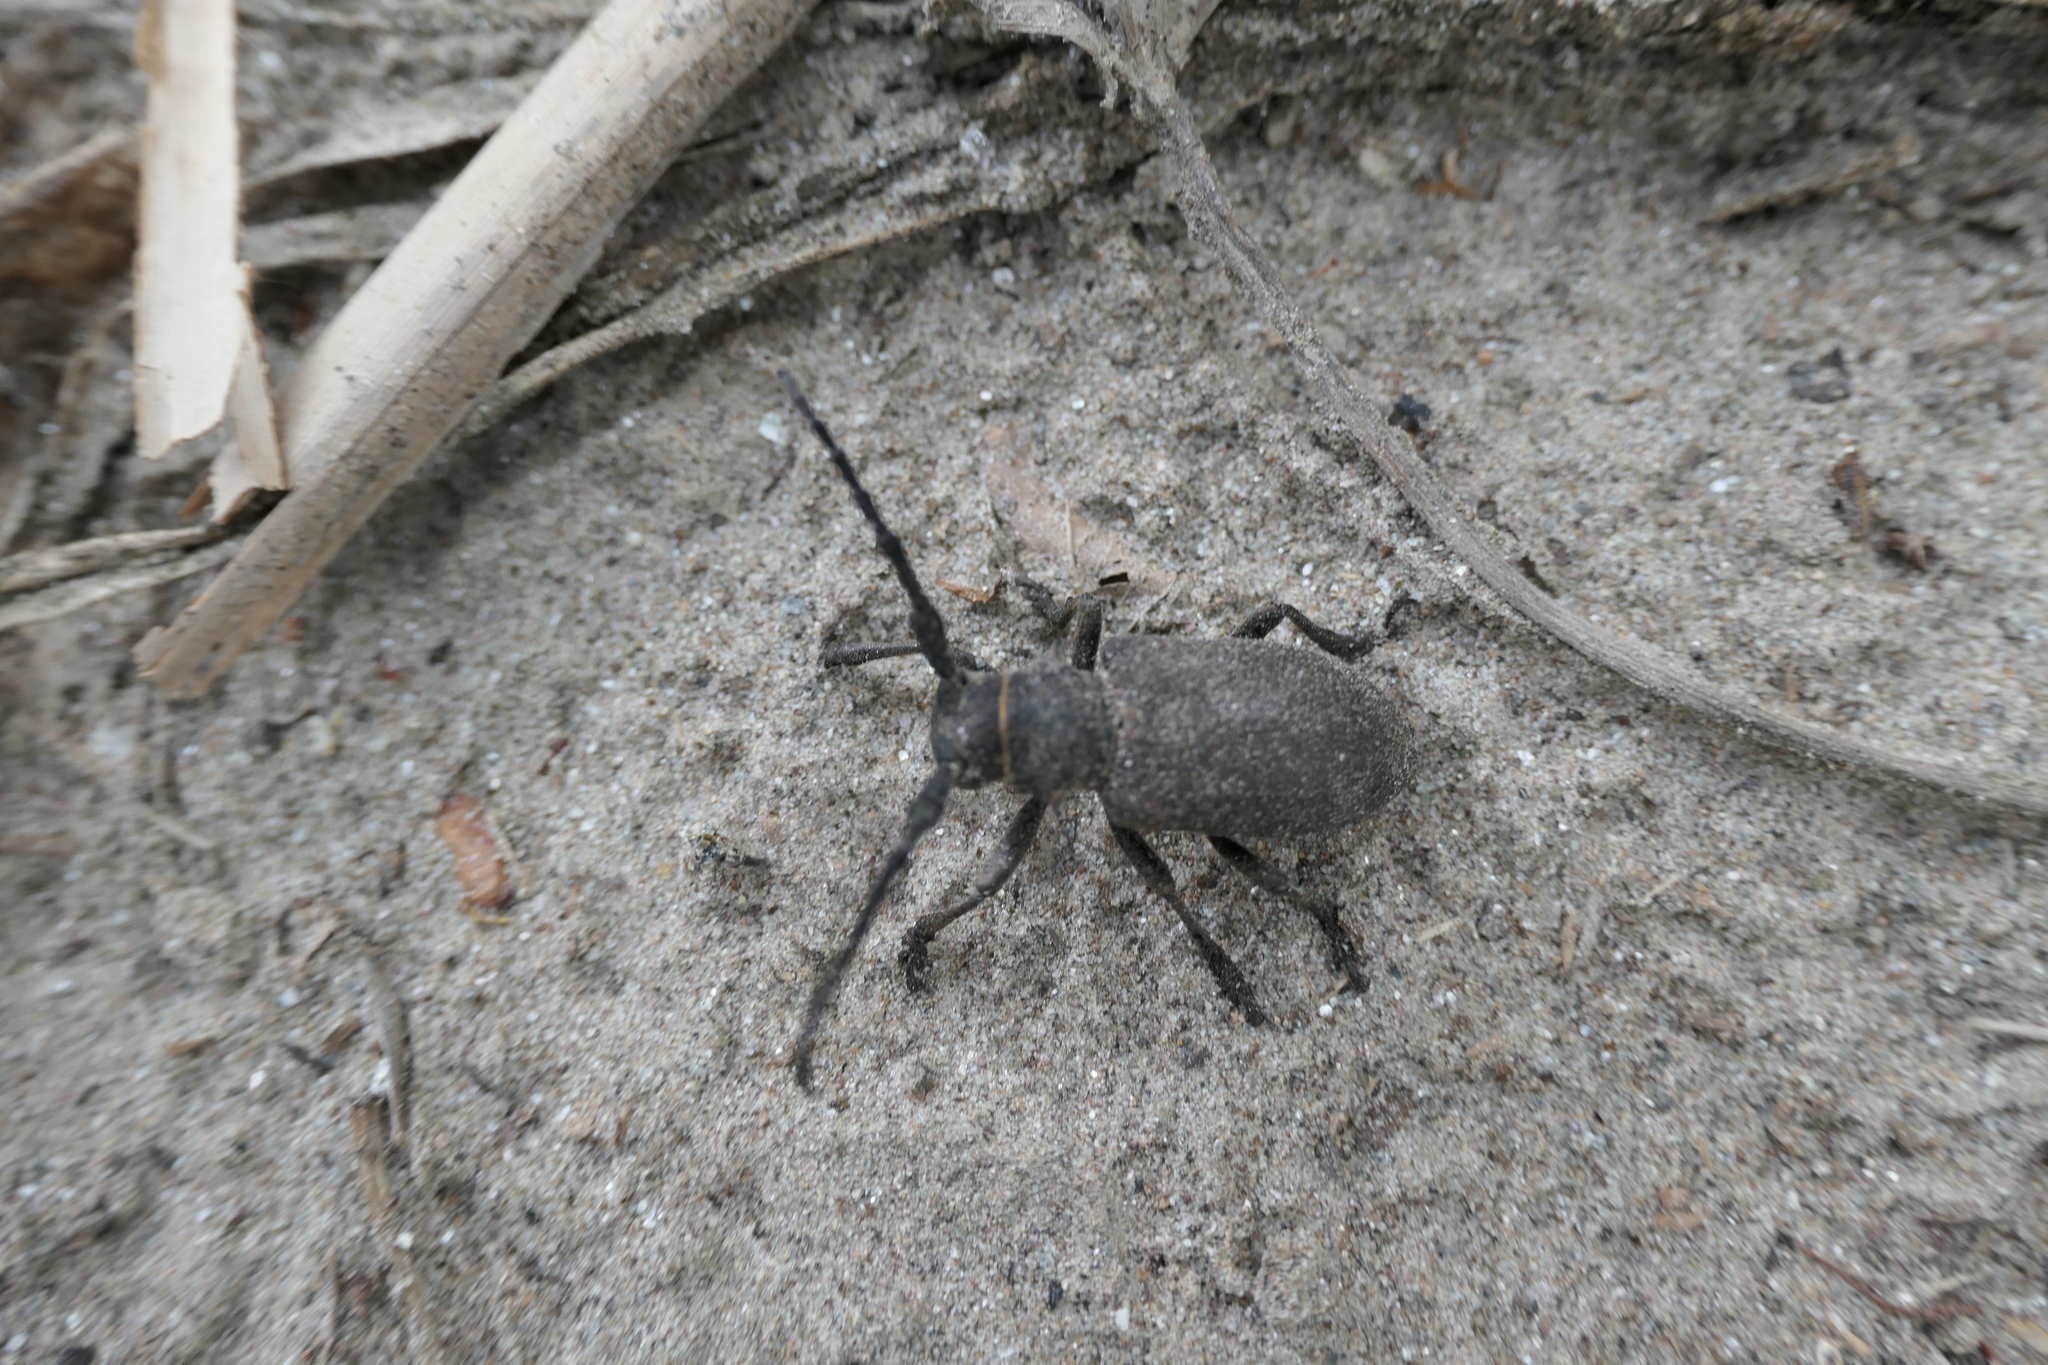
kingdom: Animalia
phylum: Arthropoda
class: Insecta
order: Coleoptera
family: Cerambycidae
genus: Lamia
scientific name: Lamia textor
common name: Weaver beetle
